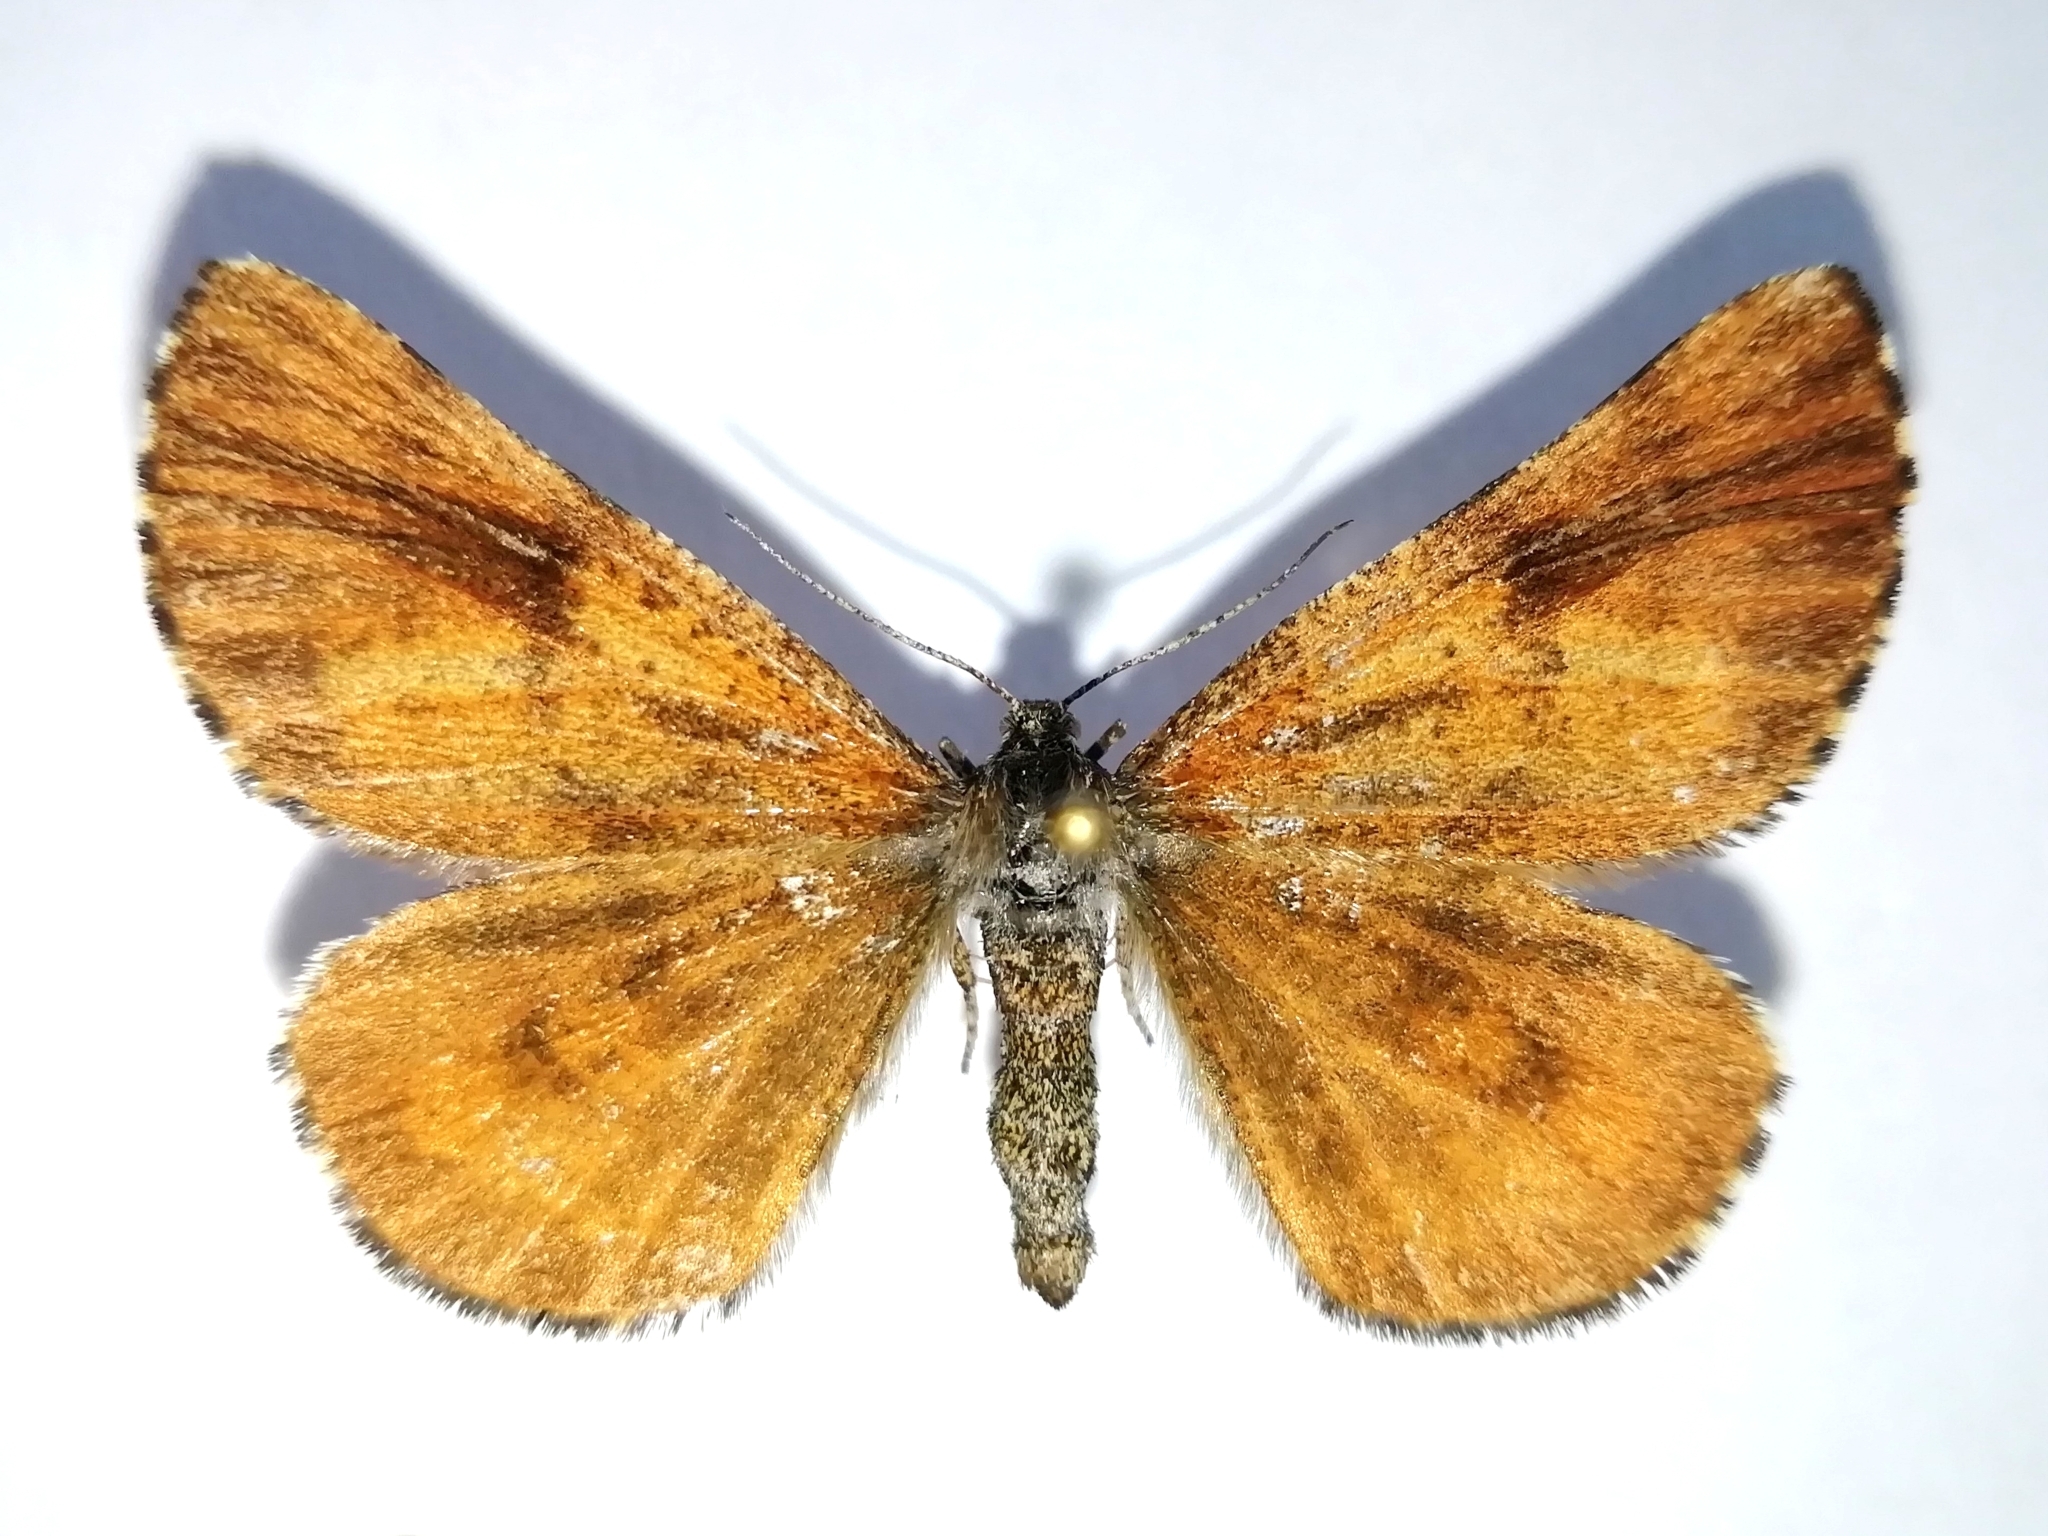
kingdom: Animalia
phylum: Arthropoda
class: Insecta
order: Lepidoptera
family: Geometridae
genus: Bupalus
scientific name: Bupalus piniaria
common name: Bordered white
